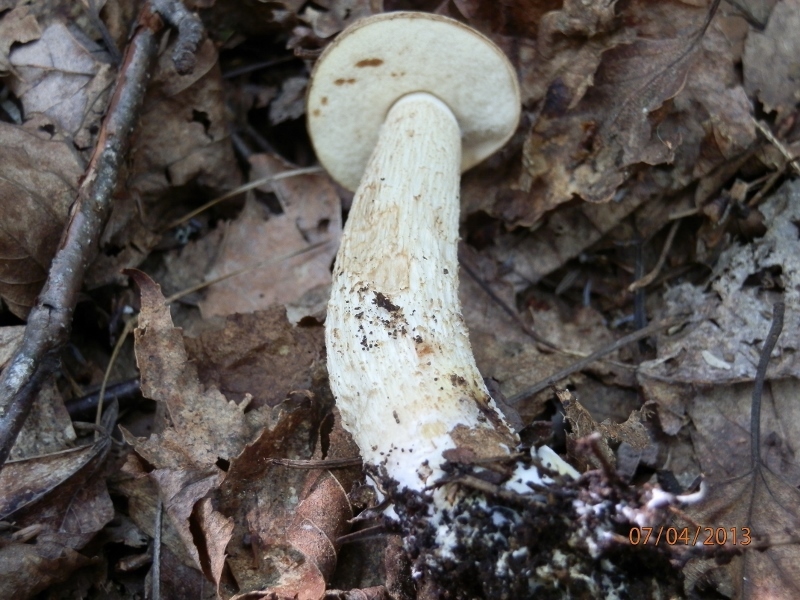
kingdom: Fungi
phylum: Basidiomycota
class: Agaricomycetes
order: Boletales
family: Boletaceae
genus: Leccinum
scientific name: Leccinum holopus
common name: Ghost bolete
